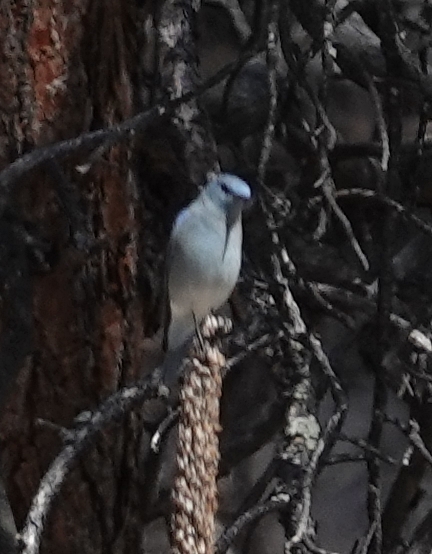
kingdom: Animalia
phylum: Chordata
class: Aves
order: Passeriformes
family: Turdidae
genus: Sialia
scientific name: Sialia currucoides
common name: Mountain bluebird
